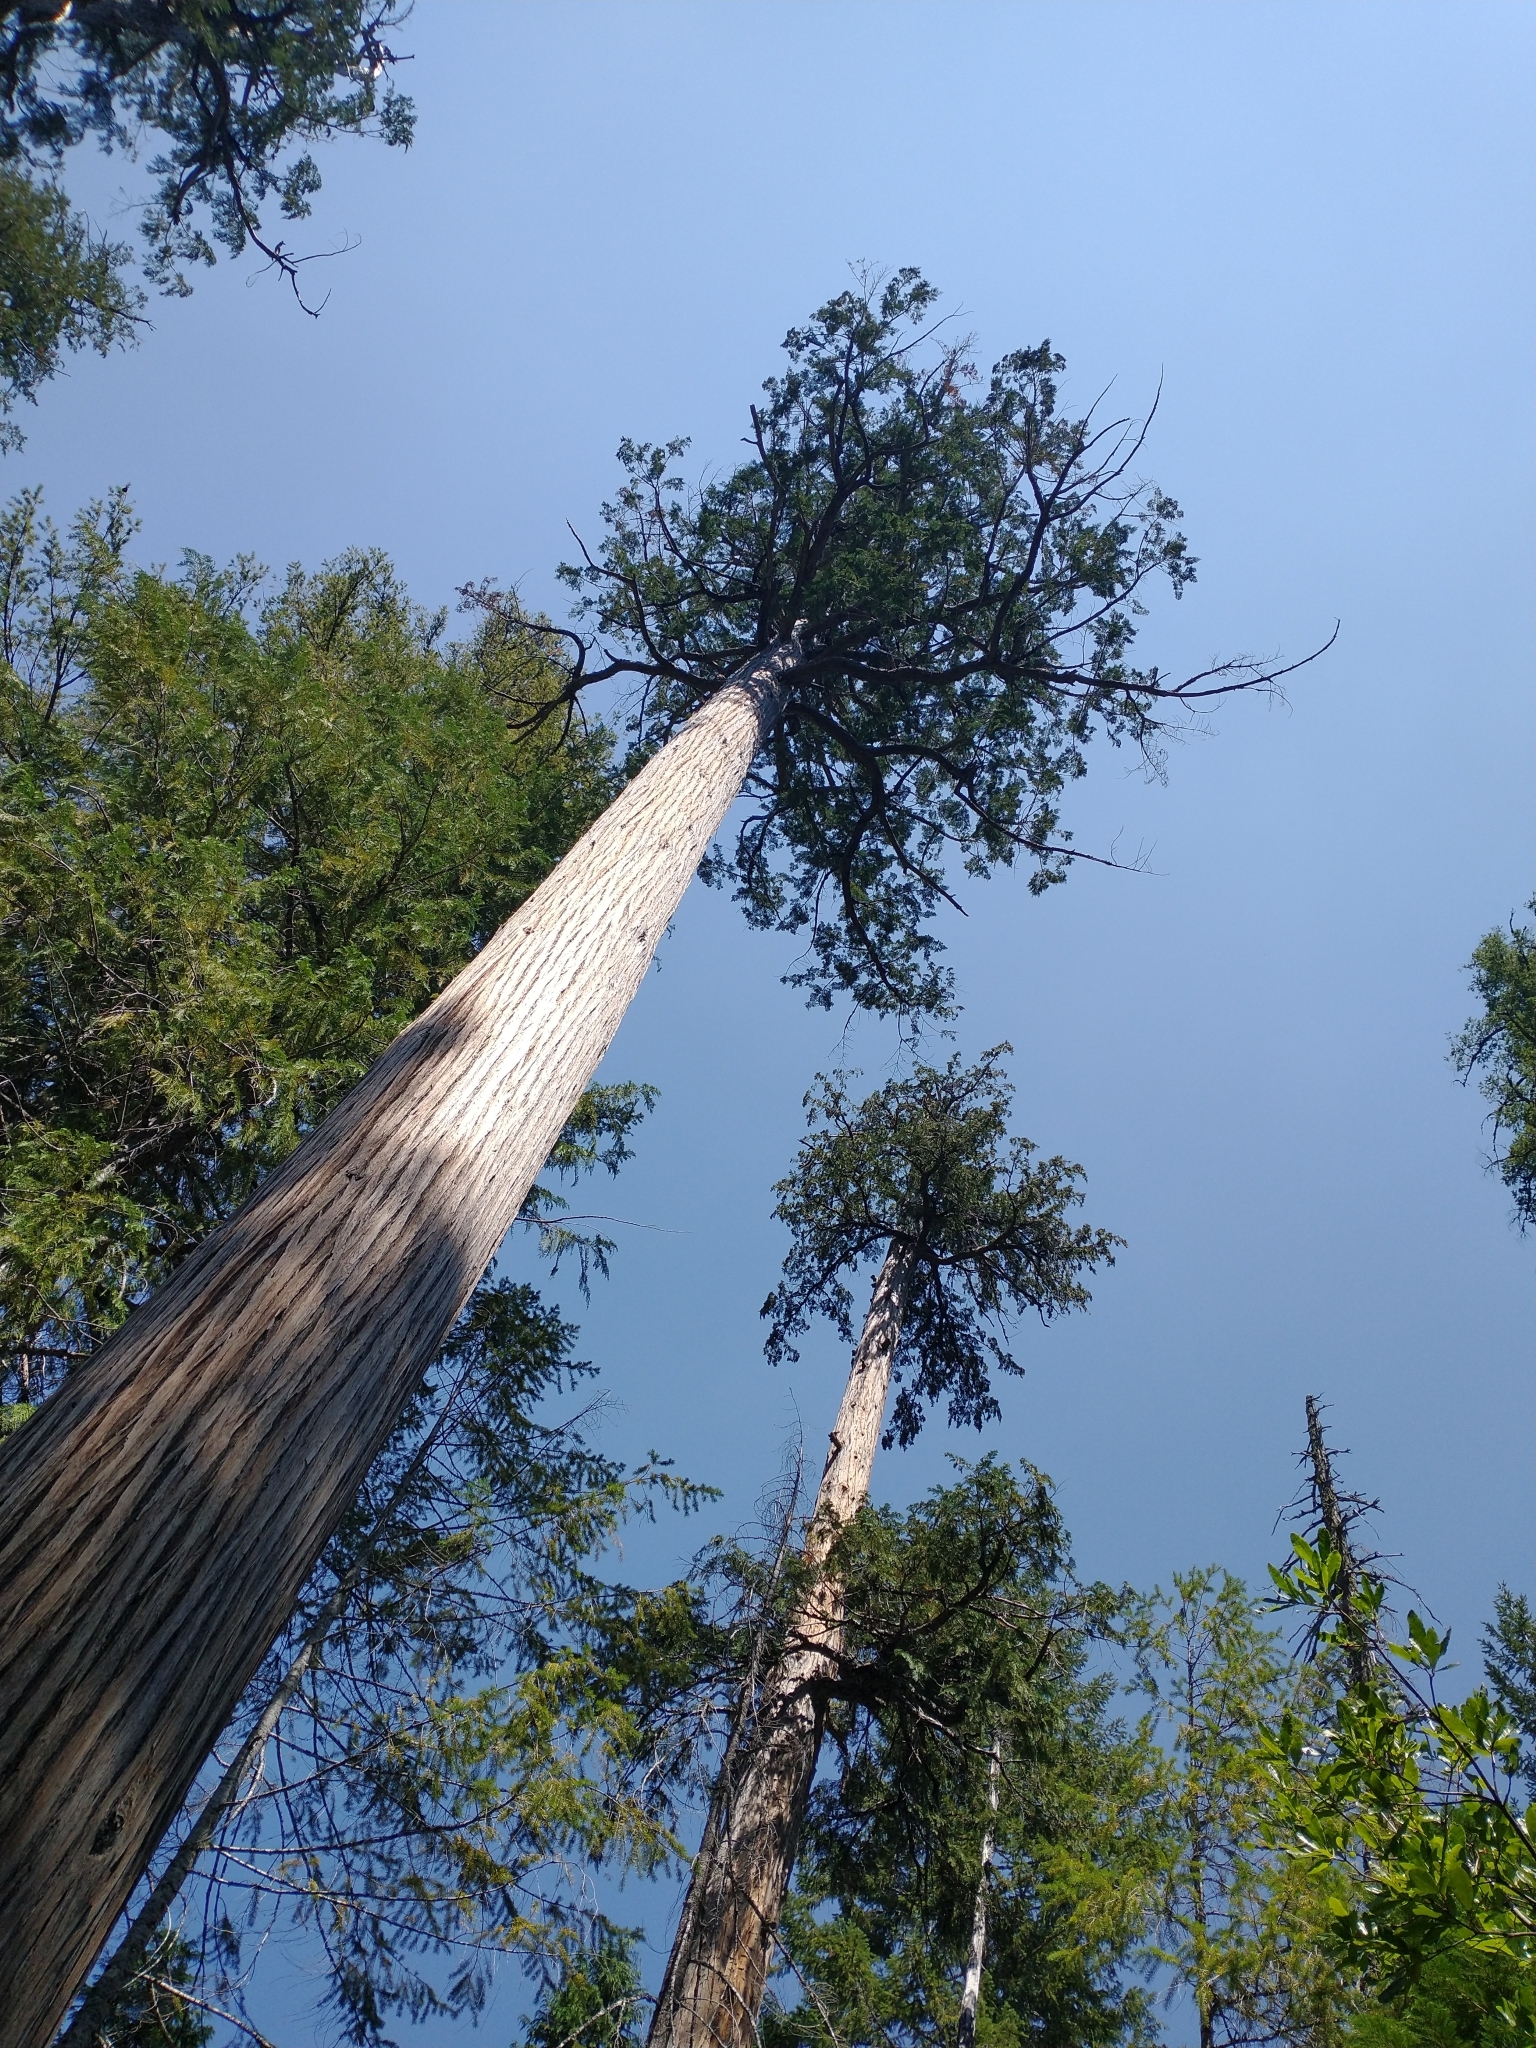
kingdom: Plantae
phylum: Tracheophyta
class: Pinopsida
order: Pinales
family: Cupressaceae
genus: Chamaecyparis
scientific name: Chamaecyparis lawsoniana
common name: Lawson's cypress
